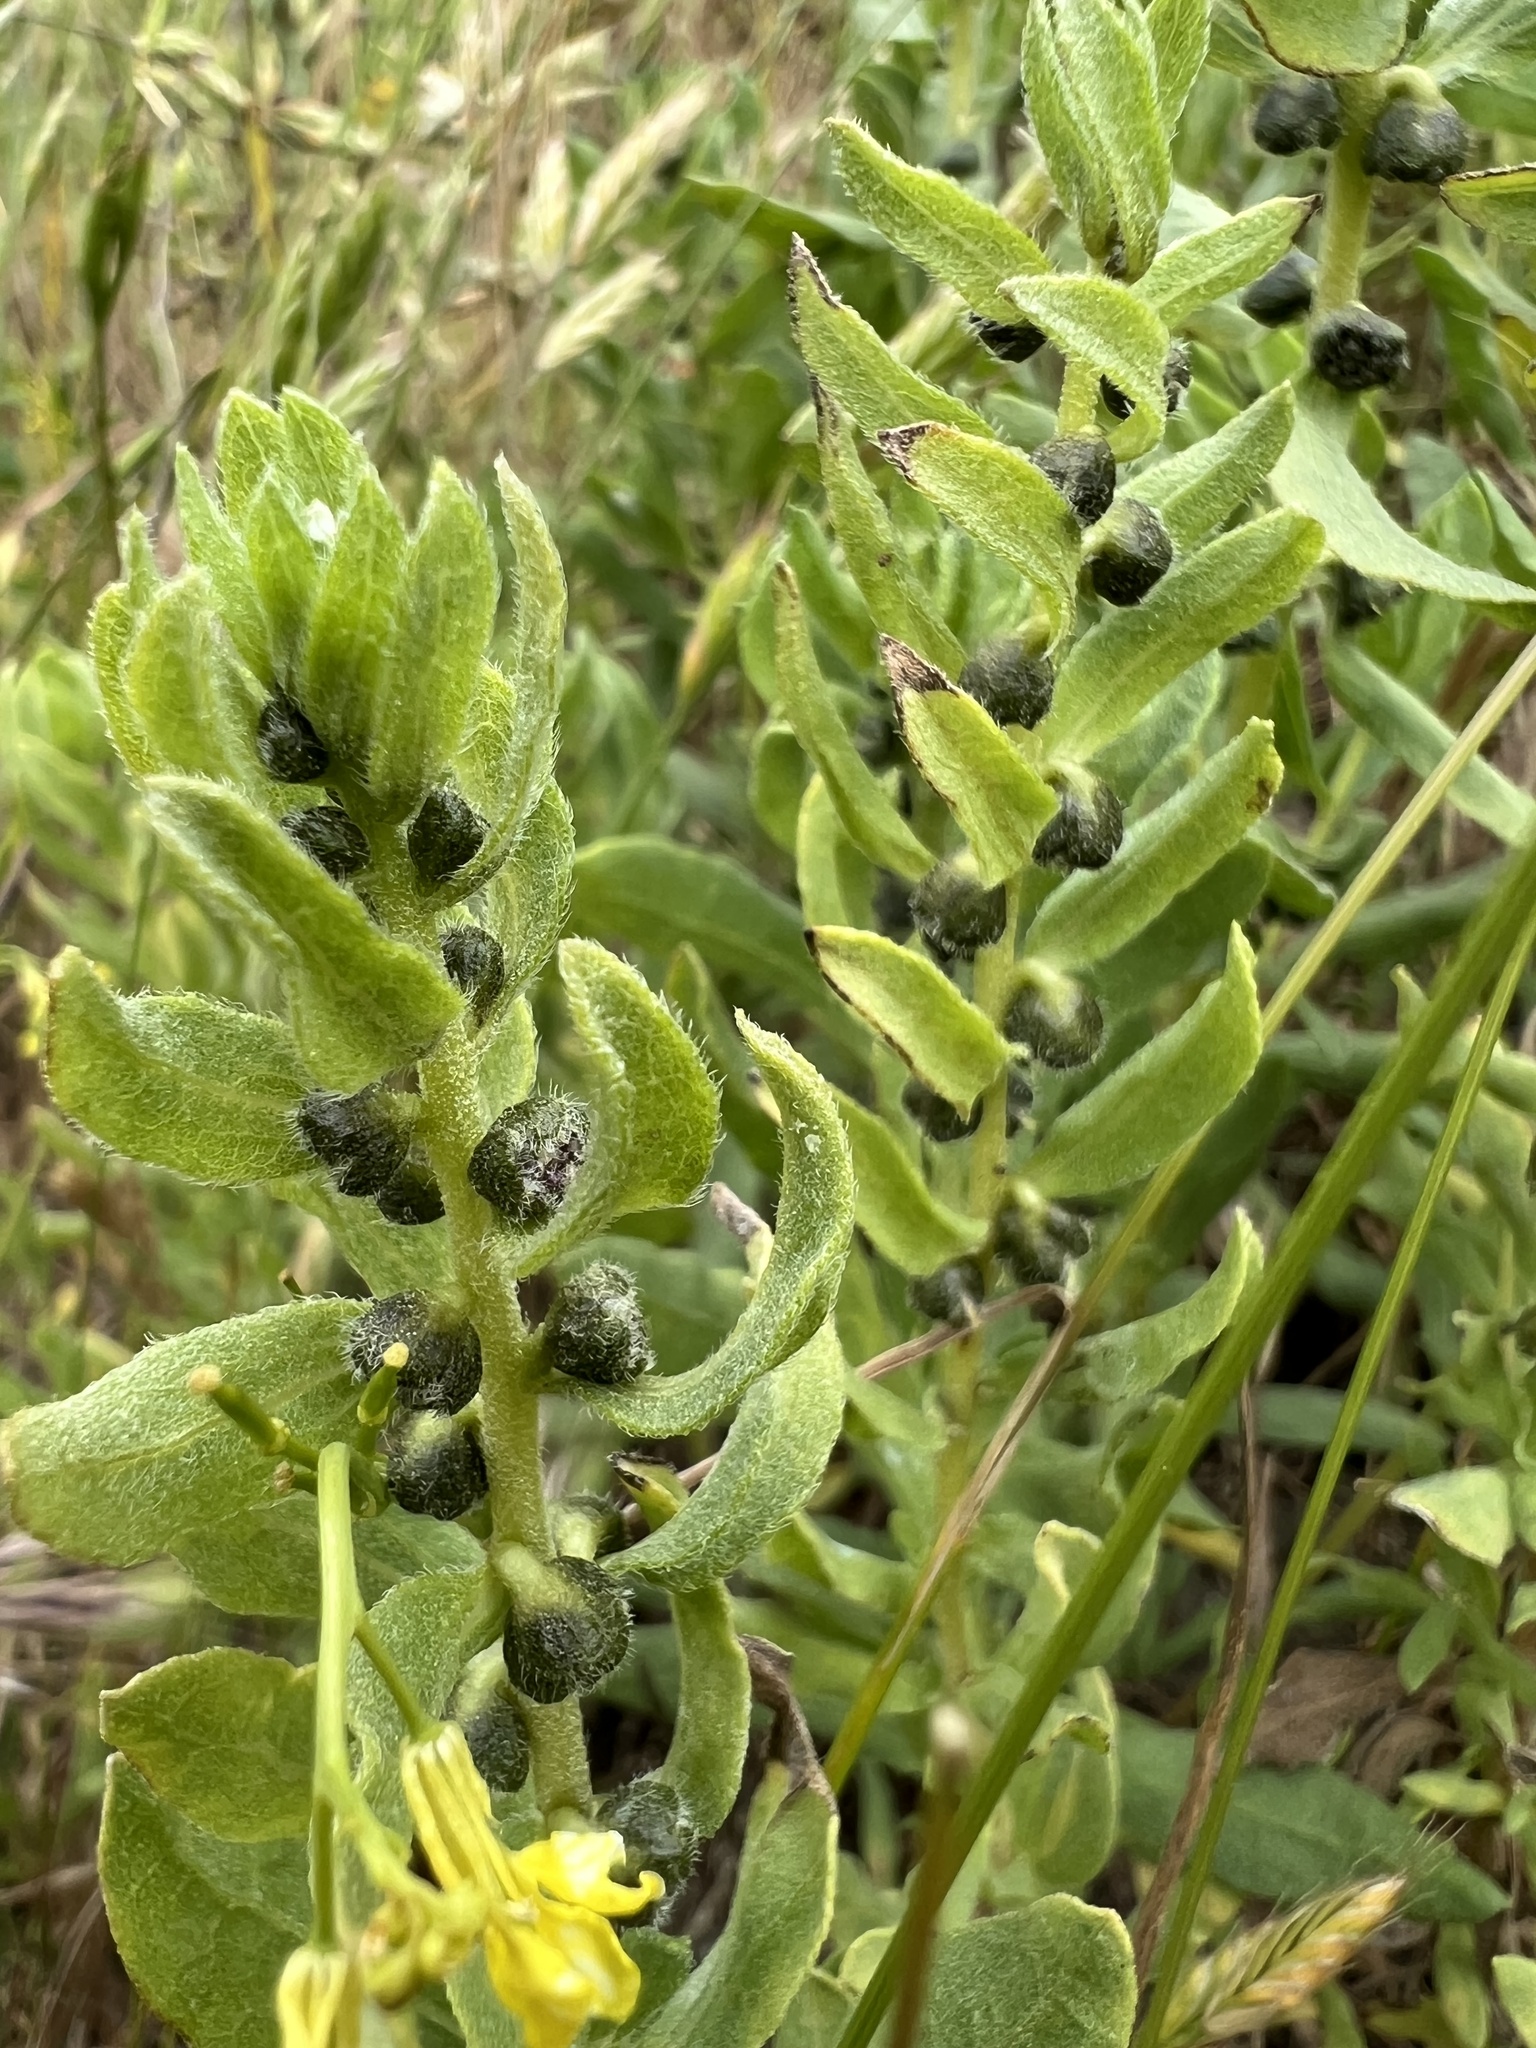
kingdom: Plantae
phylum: Tracheophyta
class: Magnoliopsida
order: Asterales
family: Asteraceae
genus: Iva
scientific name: Iva axillaris
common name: Poverty sumpweed
